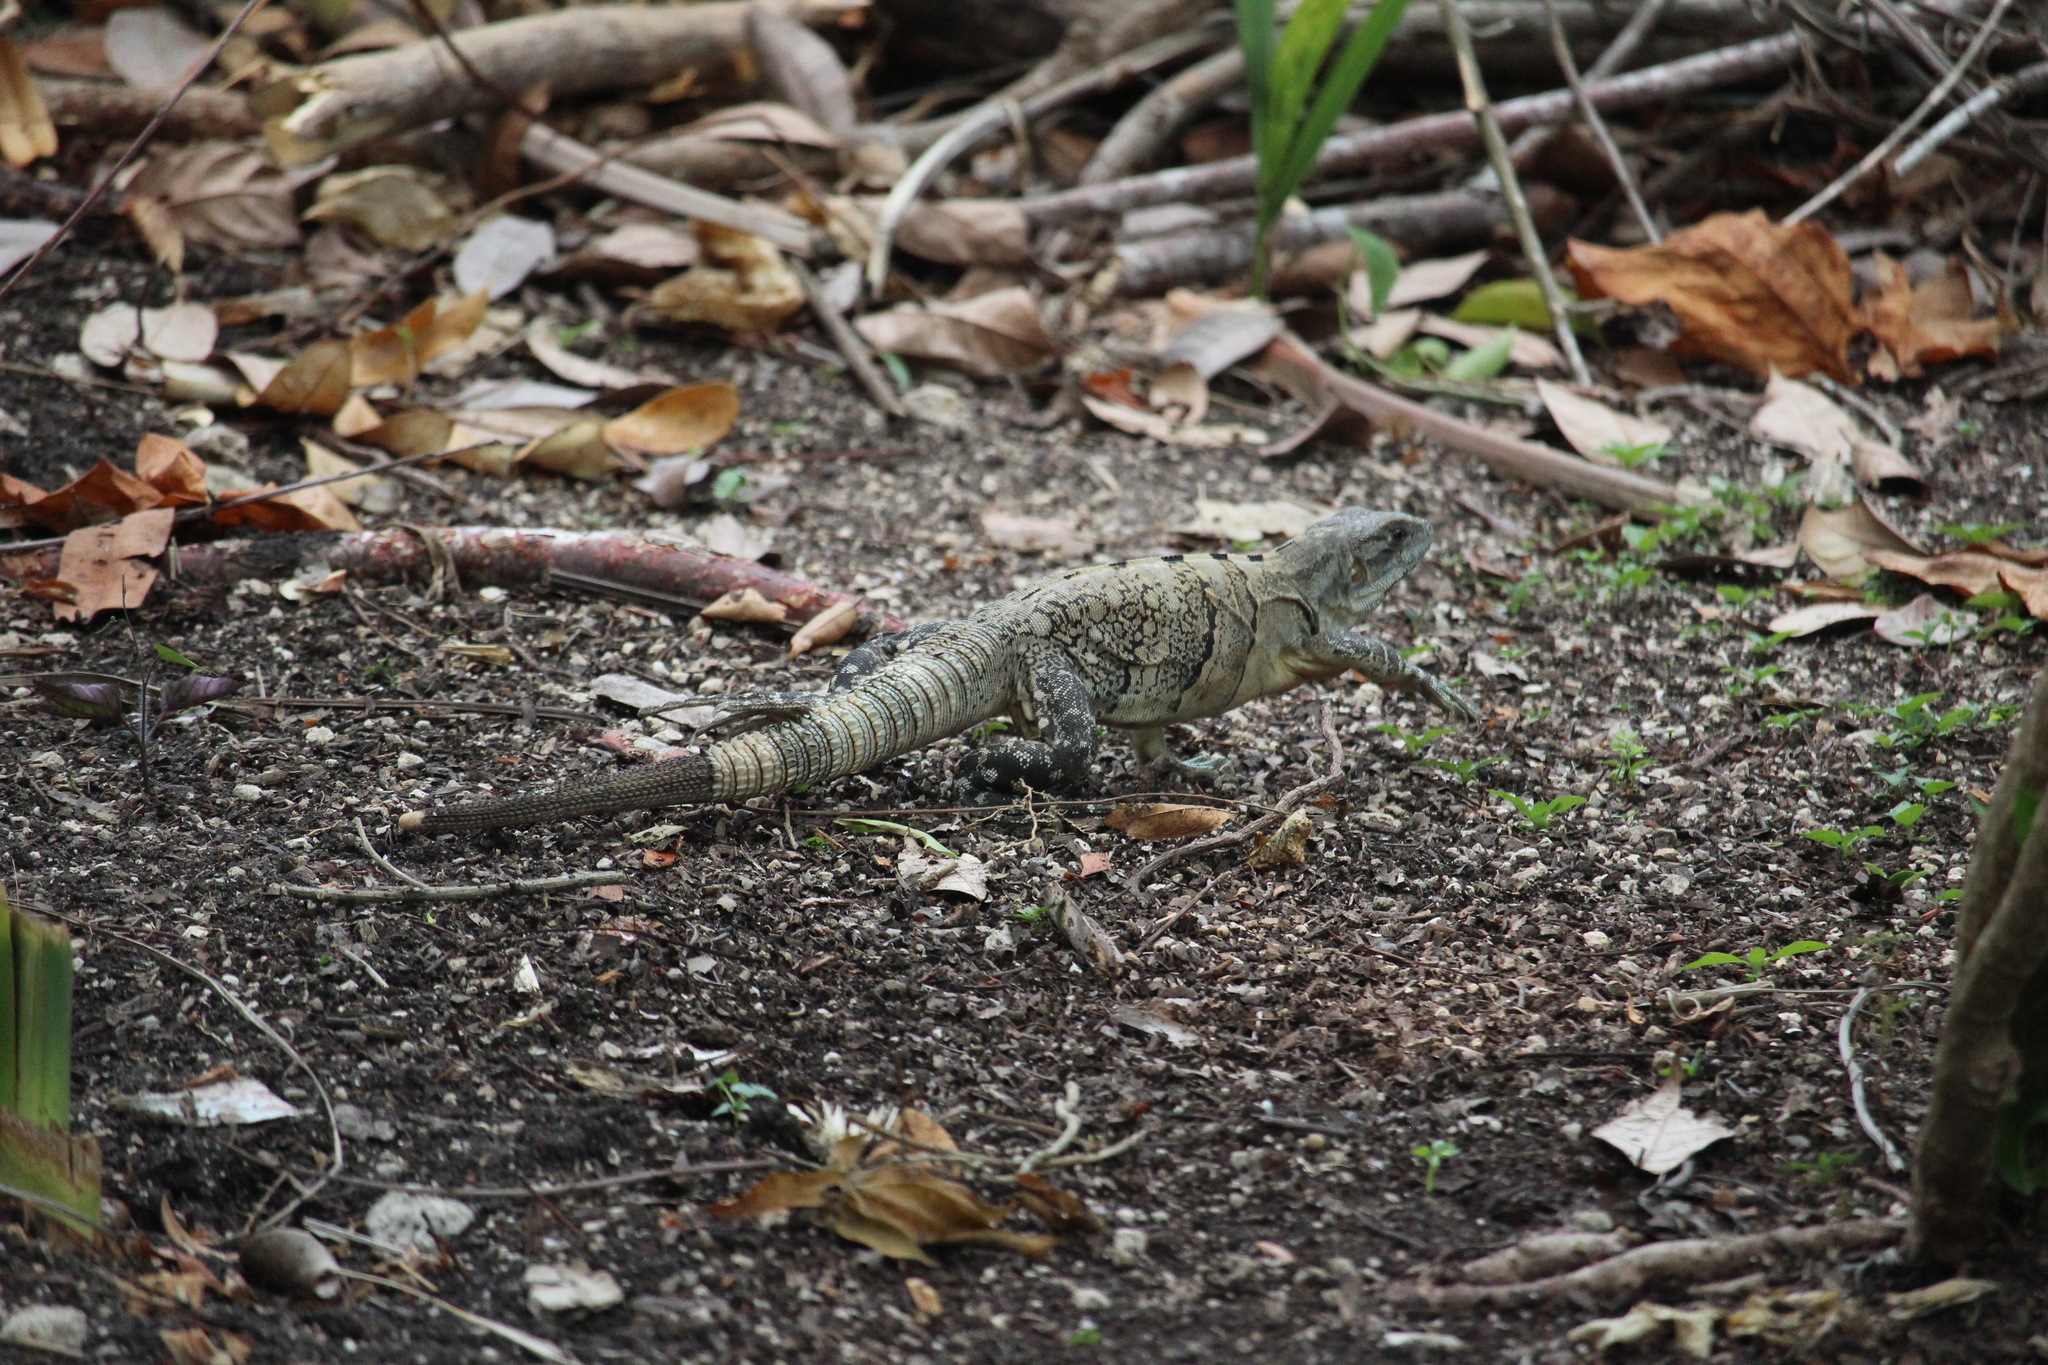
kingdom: Animalia
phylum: Chordata
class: Squamata
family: Iguanidae
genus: Ctenosaura
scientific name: Ctenosaura similis
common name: Black spiny-tailed iguana
